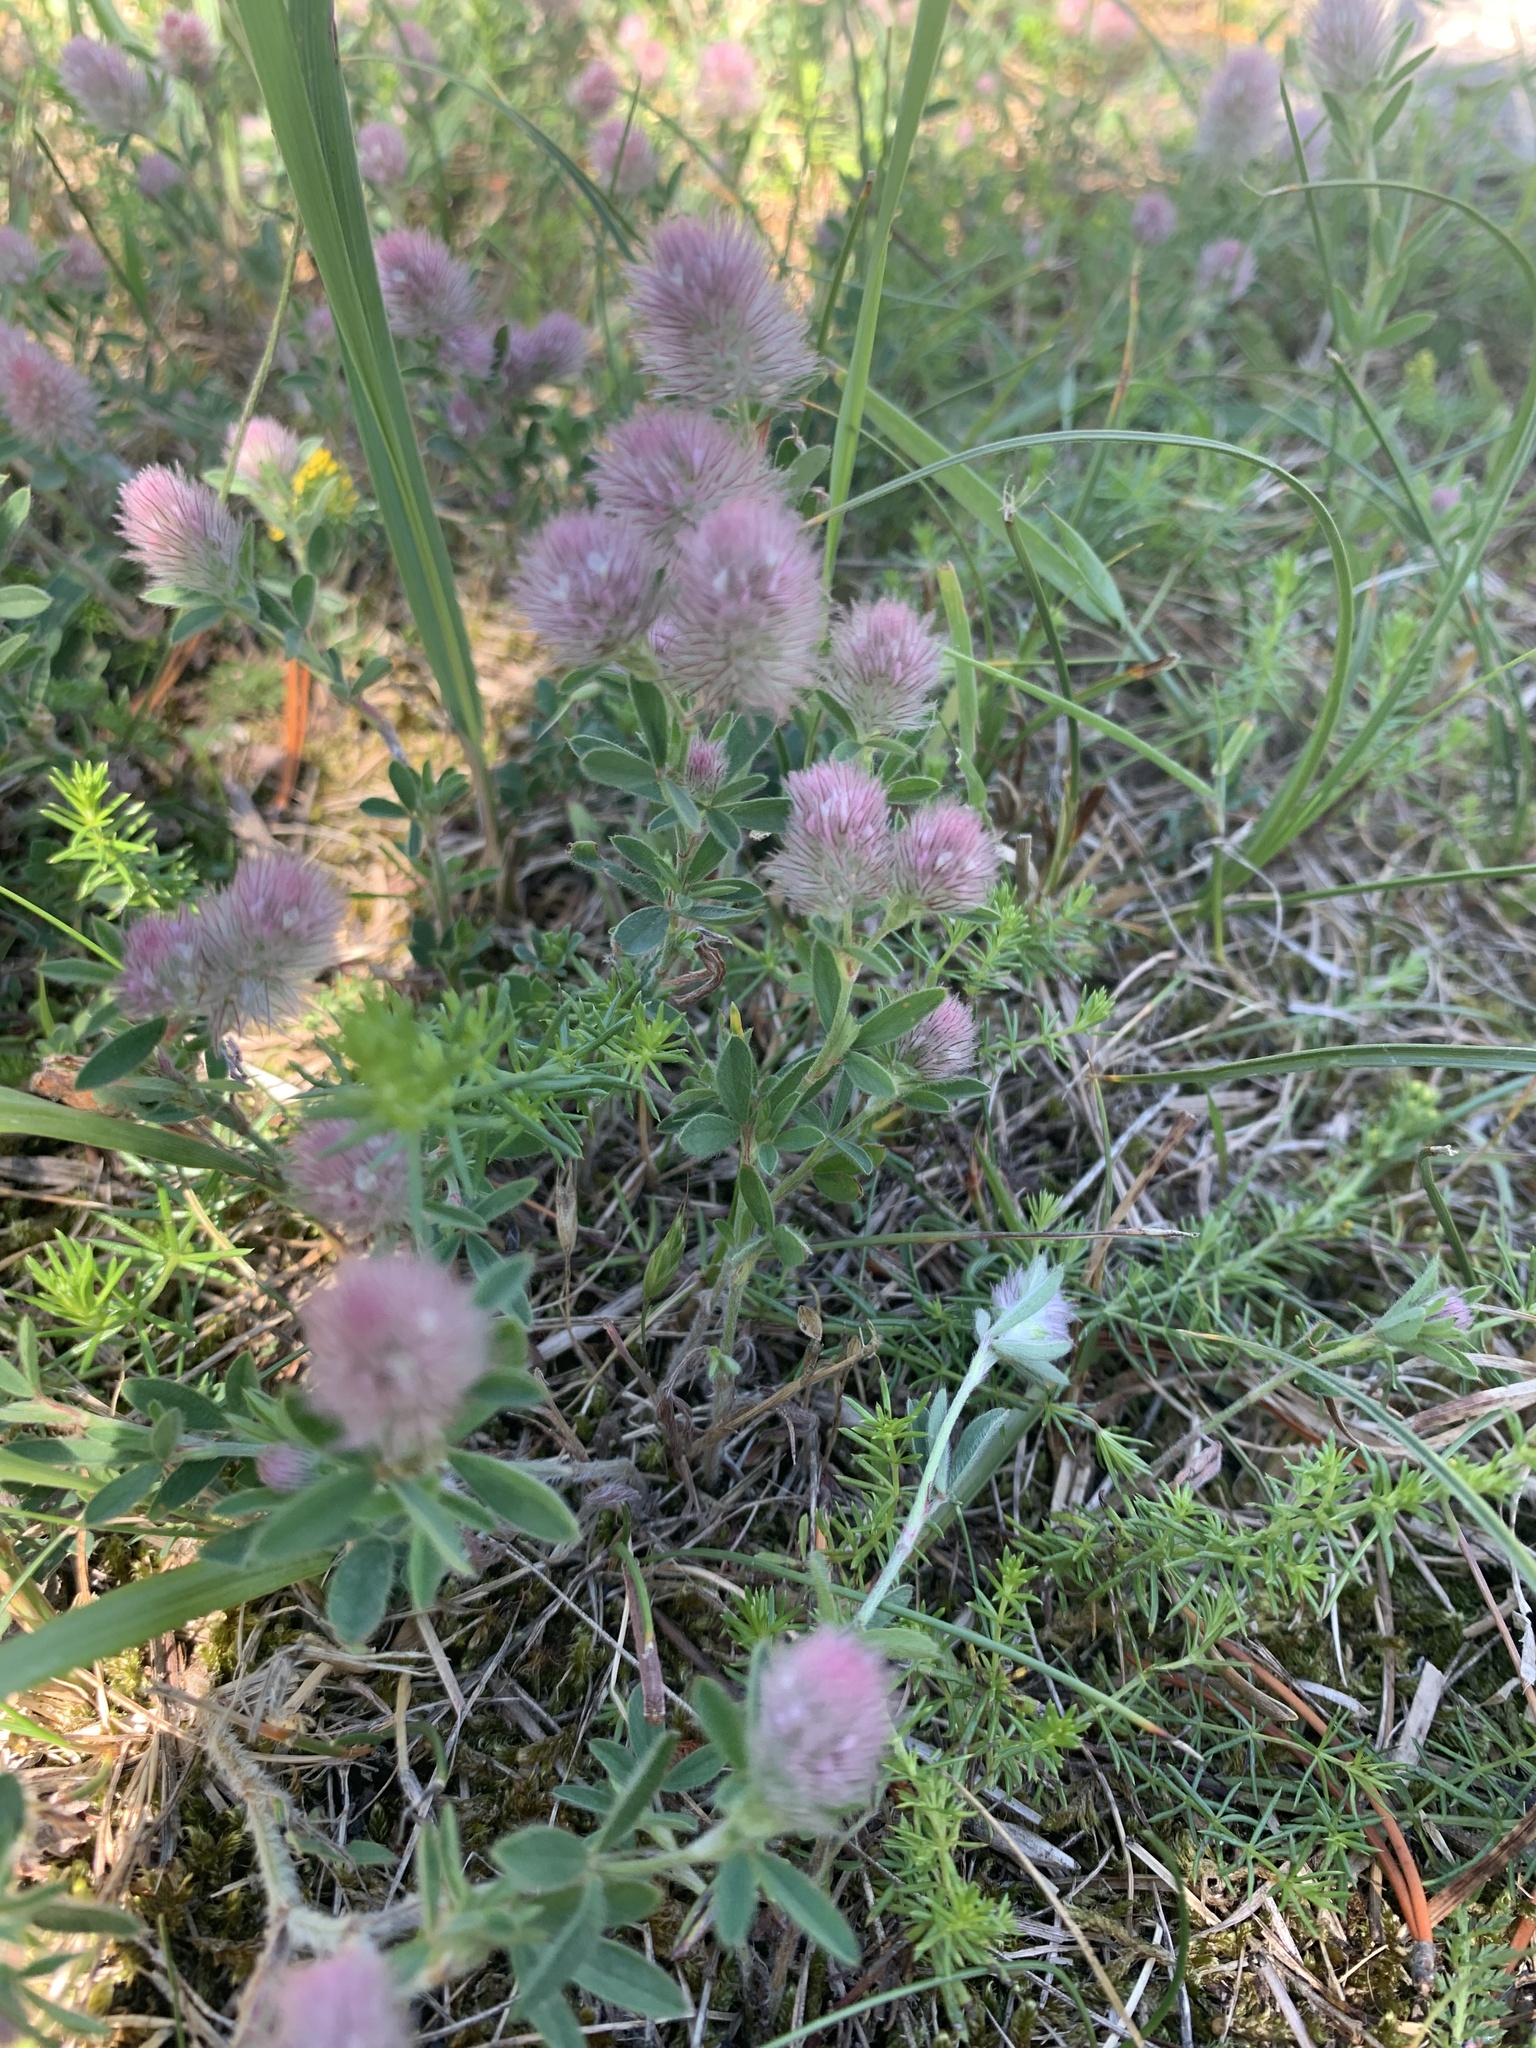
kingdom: Plantae
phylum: Tracheophyta
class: Magnoliopsida
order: Fabales
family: Fabaceae
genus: Trifolium
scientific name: Trifolium arvense
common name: Hare's-foot clover
